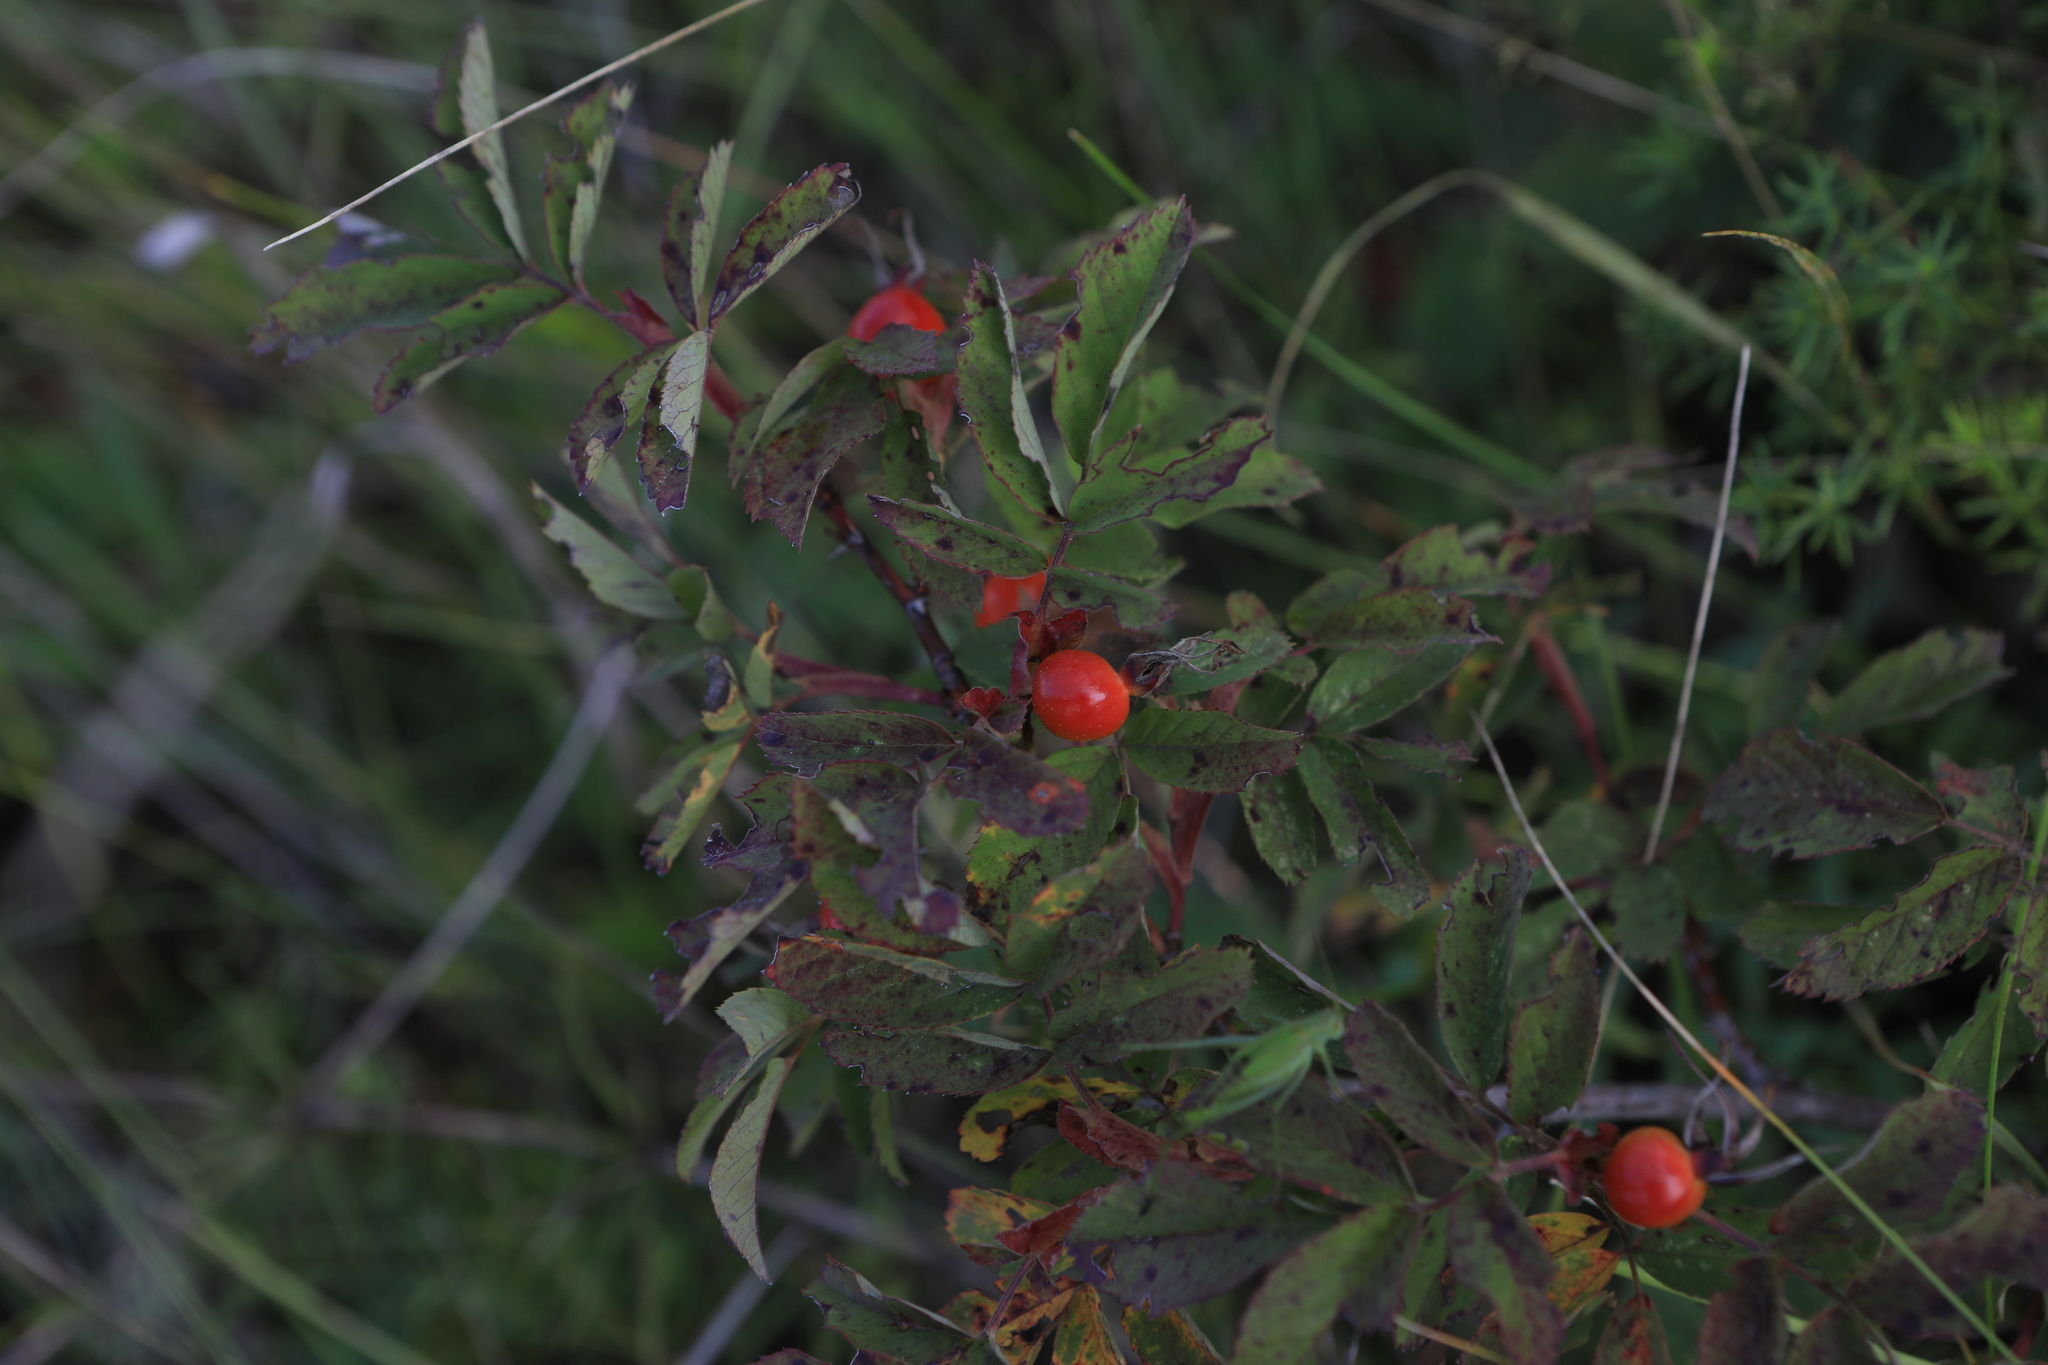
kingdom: Plantae
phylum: Tracheophyta
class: Magnoliopsida
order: Rosales
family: Rosaceae
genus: Rosa
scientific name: Rosa majalis
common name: Cinnamon rose
